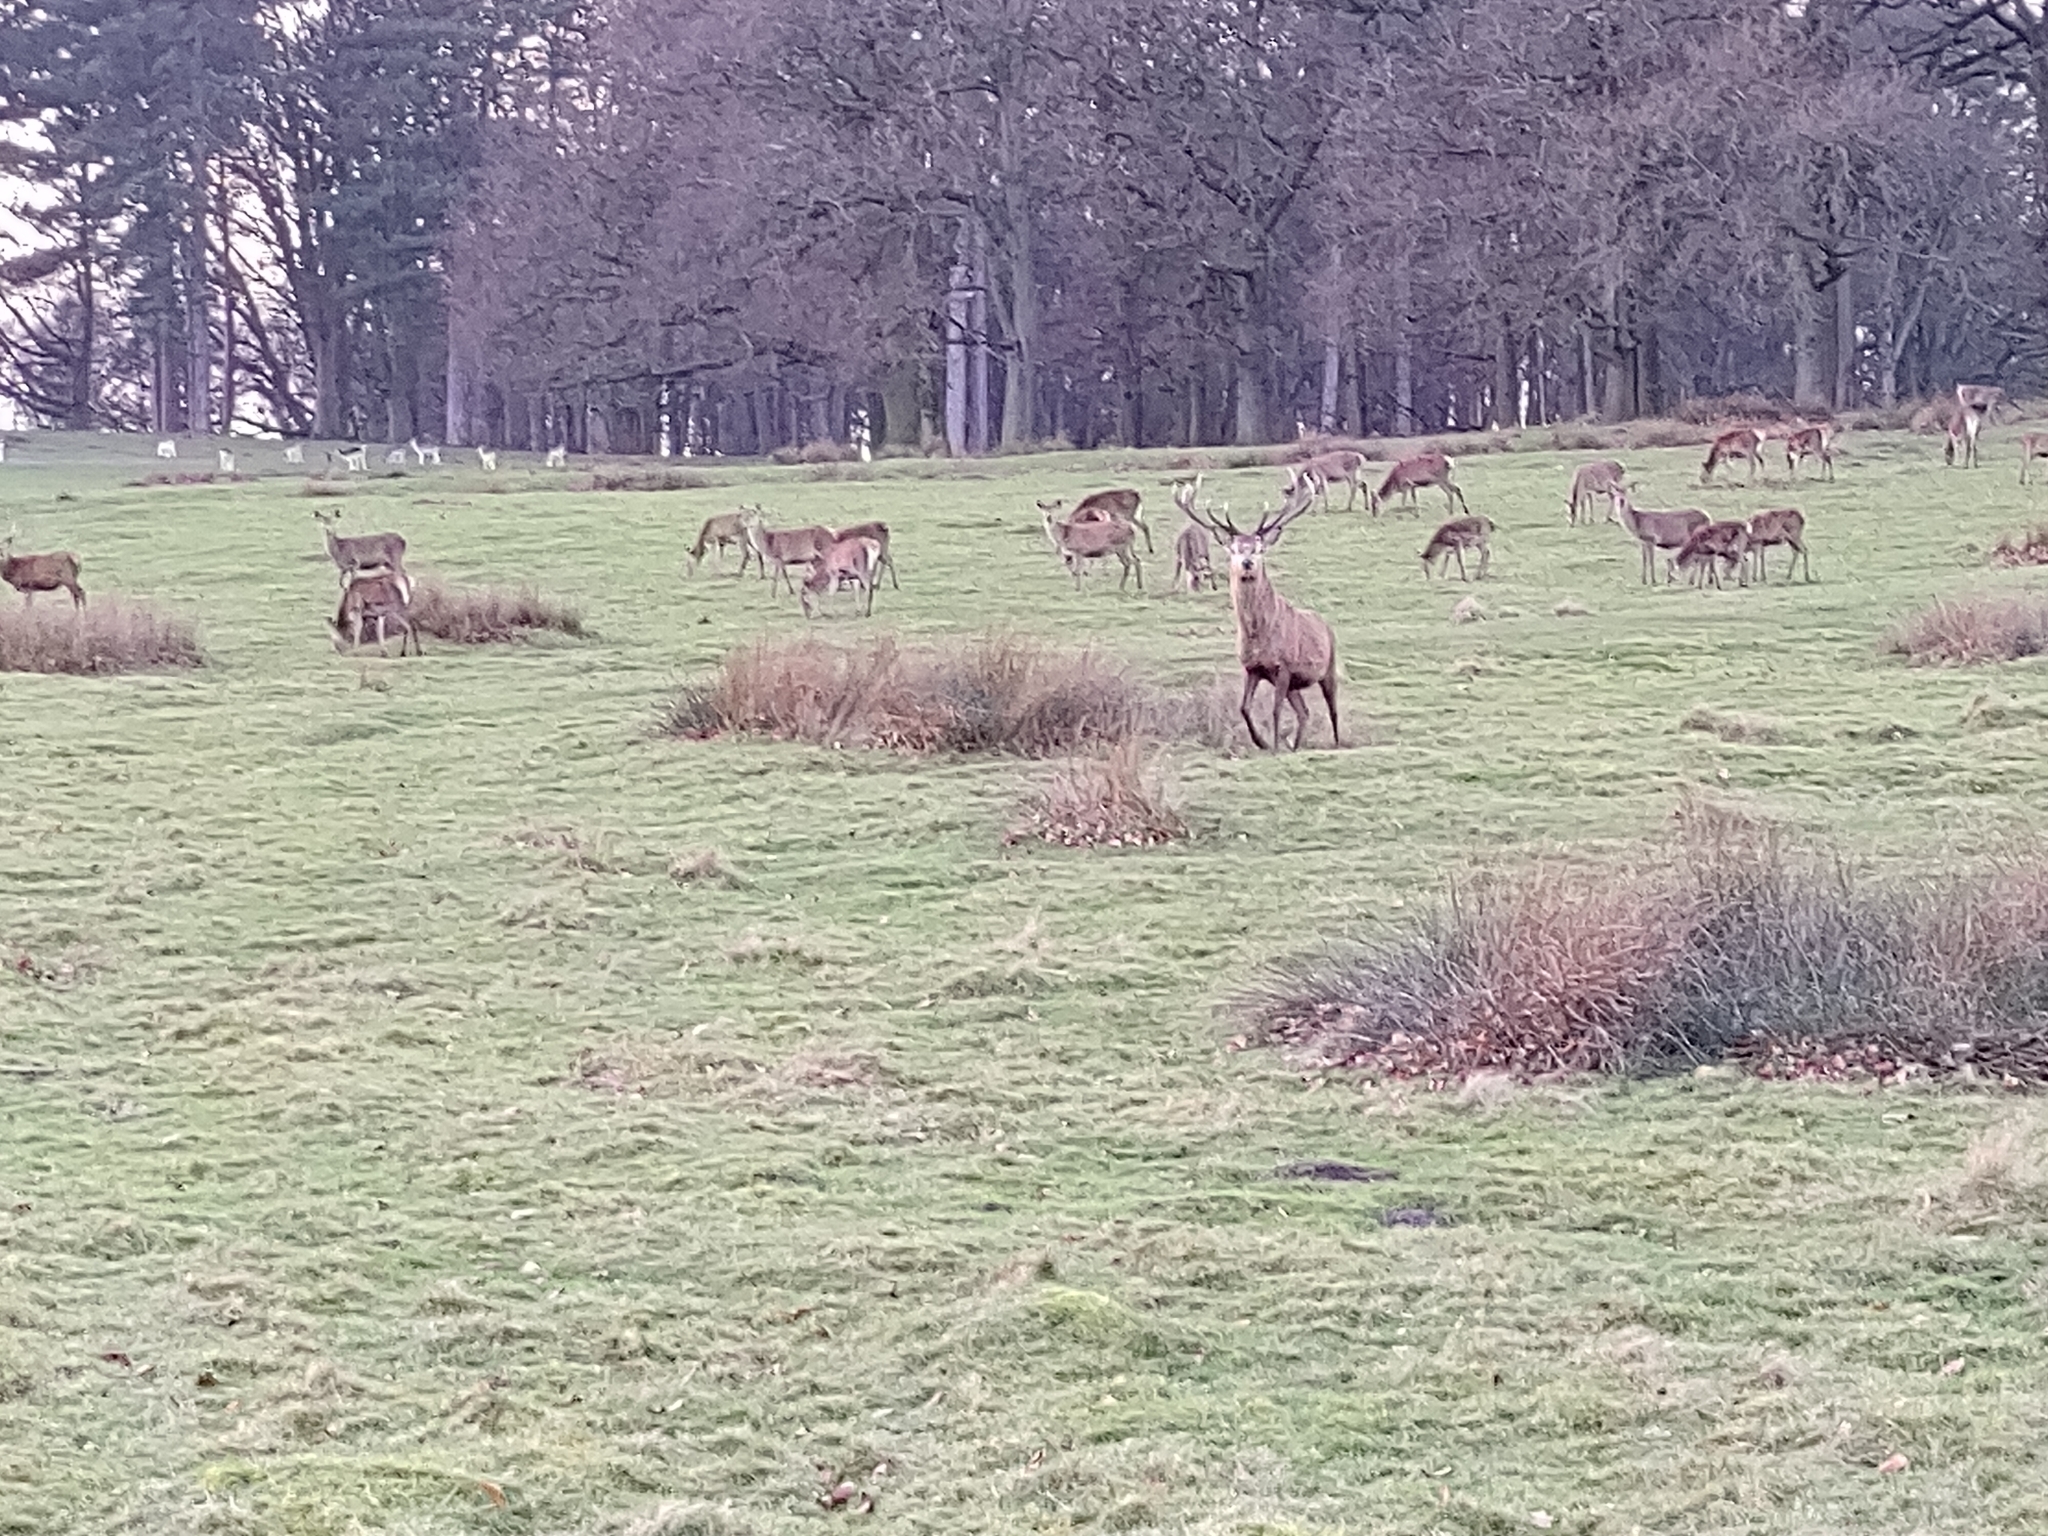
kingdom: Animalia
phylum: Chordata
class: Mammalia
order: Artiodactyla
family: Cervidae
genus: Cervus
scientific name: Cervus elaphus
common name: Red deer
